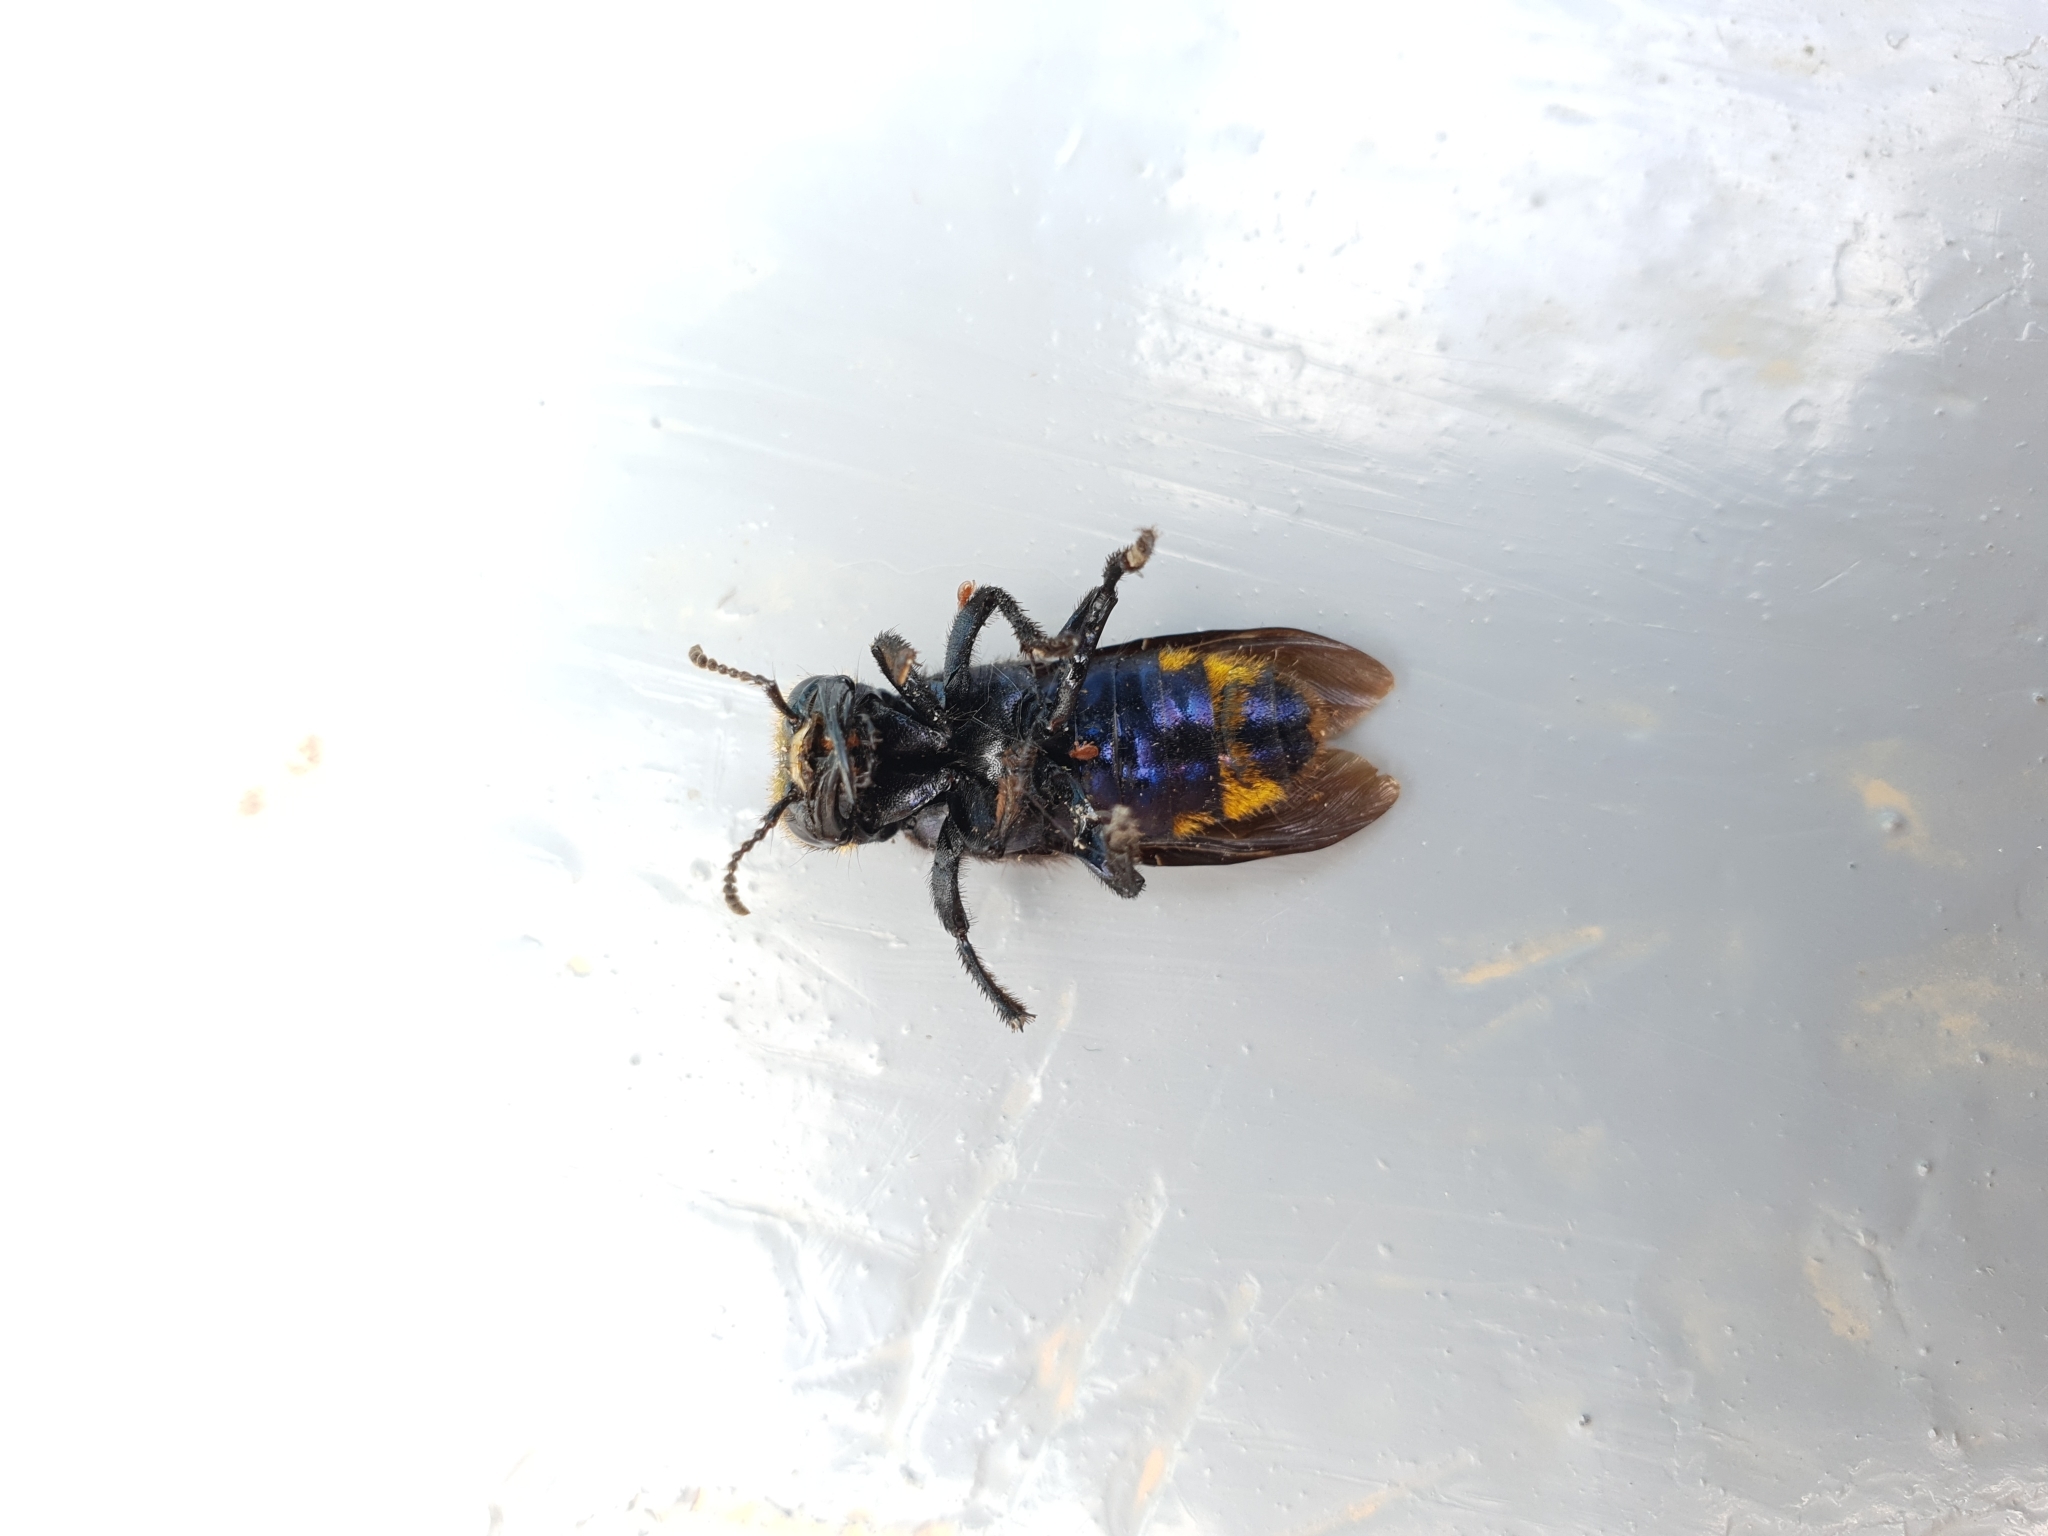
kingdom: Animalia
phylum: Arthropoda
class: Insecta
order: Coleoptera
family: Staphylinidae
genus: Emus
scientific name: Emus hirtus
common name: Hairy rove-beetle
